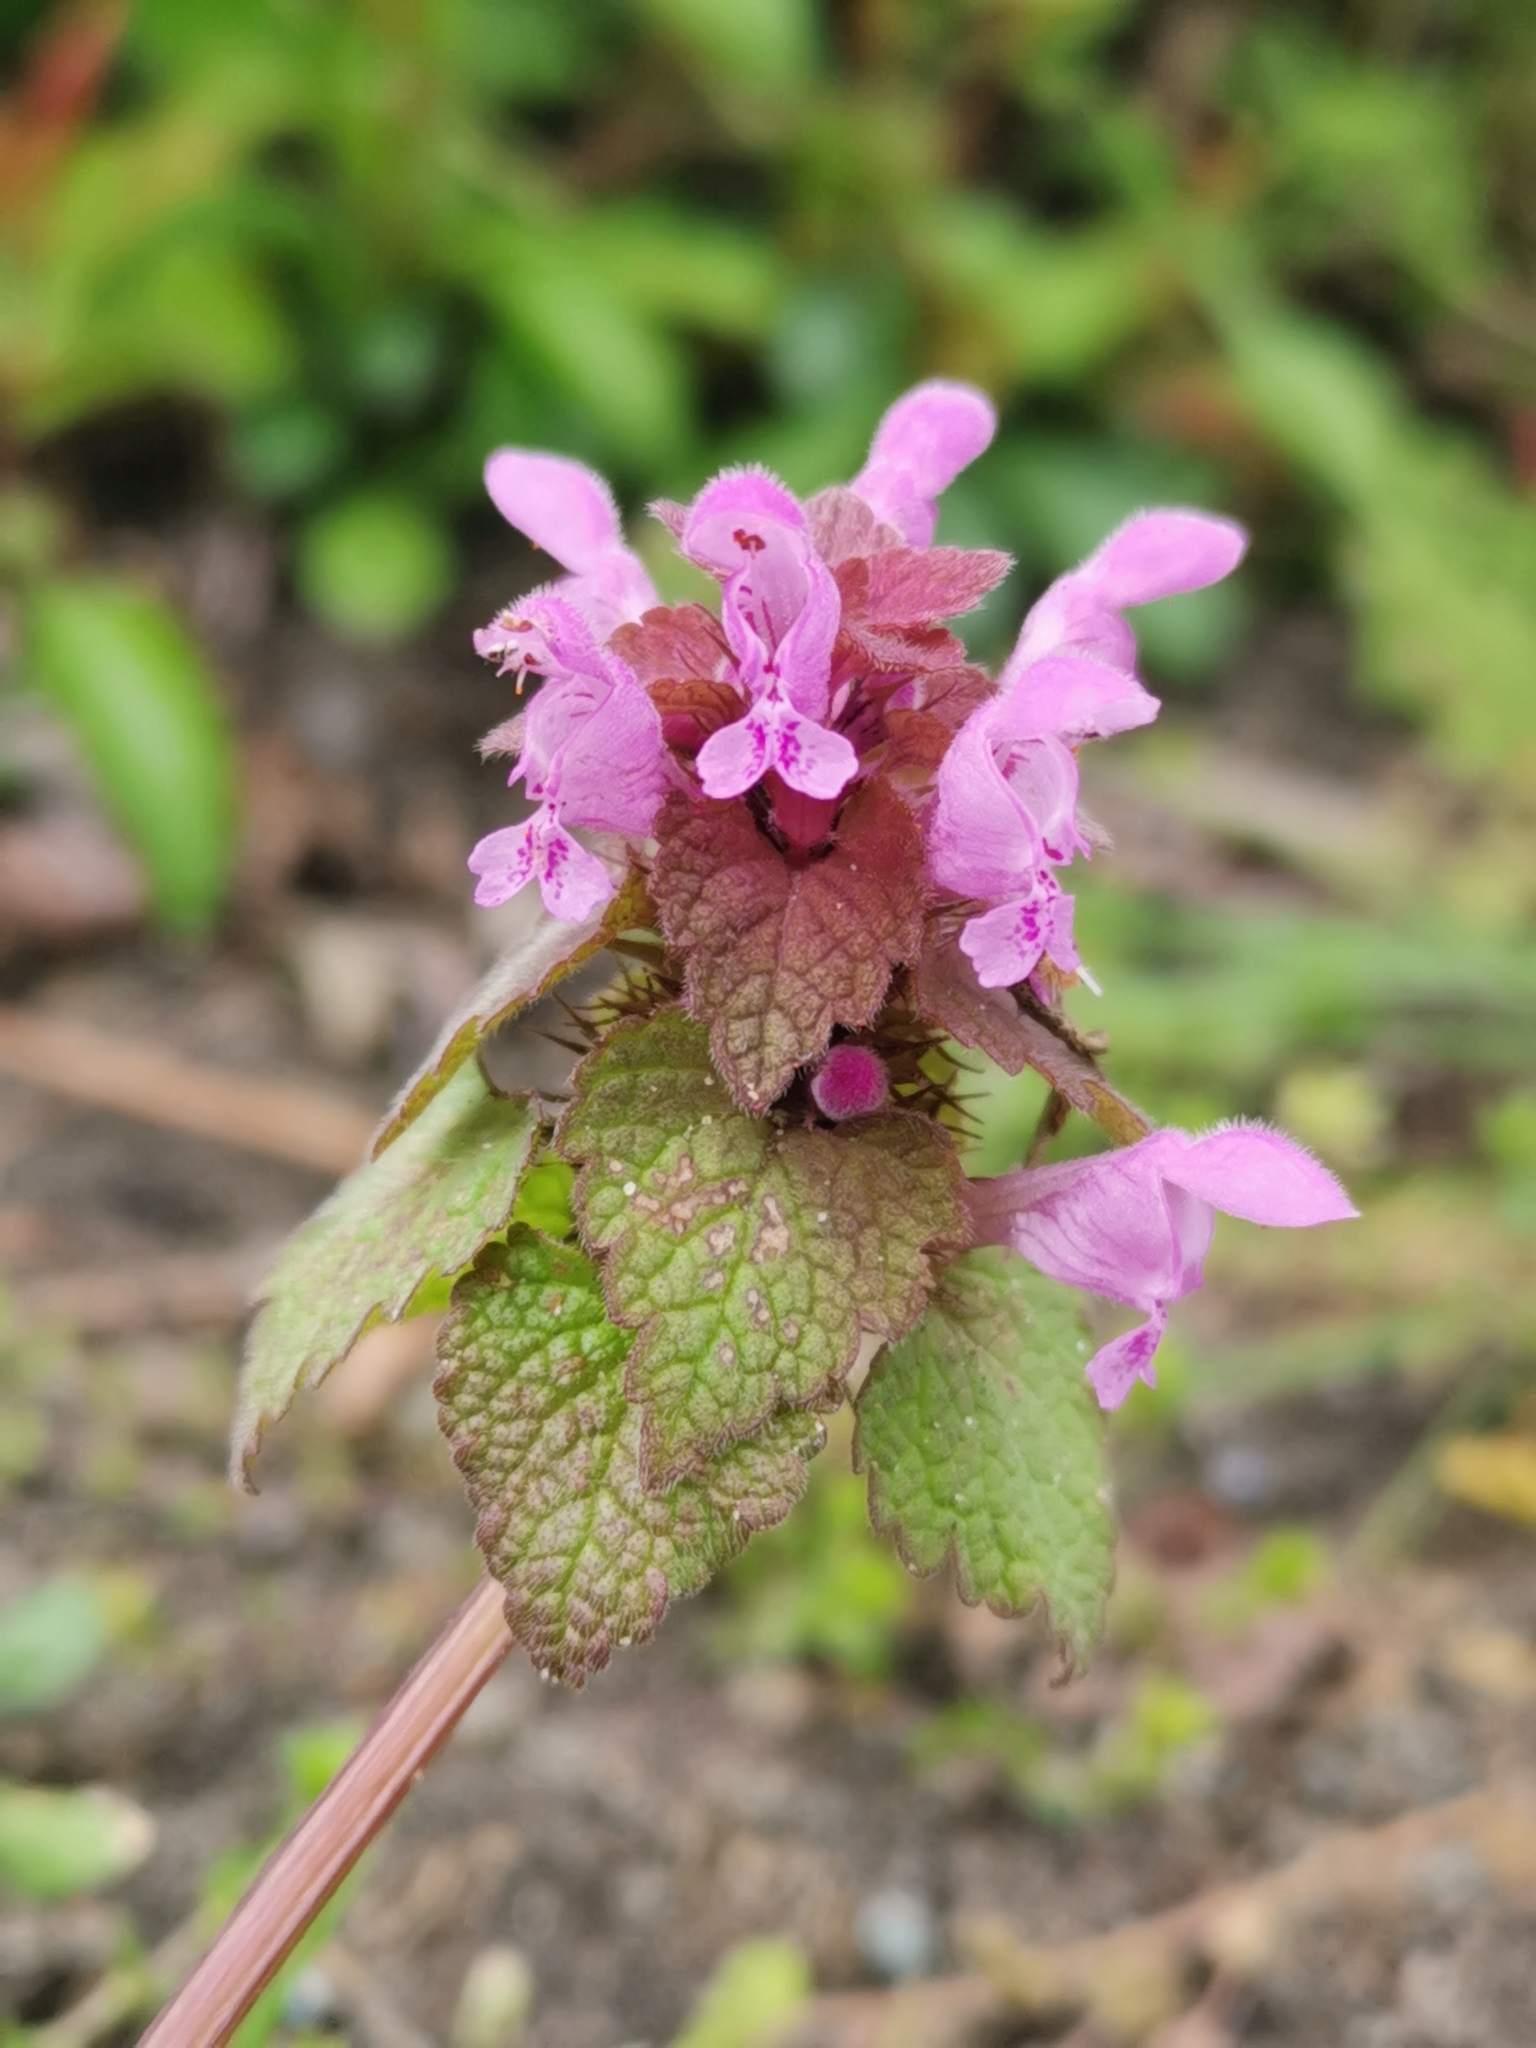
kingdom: Plantae
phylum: Tracheophyta
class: Magnoliopsida
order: Lamiales
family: Lamiaceae
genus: Lamium
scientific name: Lamium purpureum
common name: Red dead-nettle
